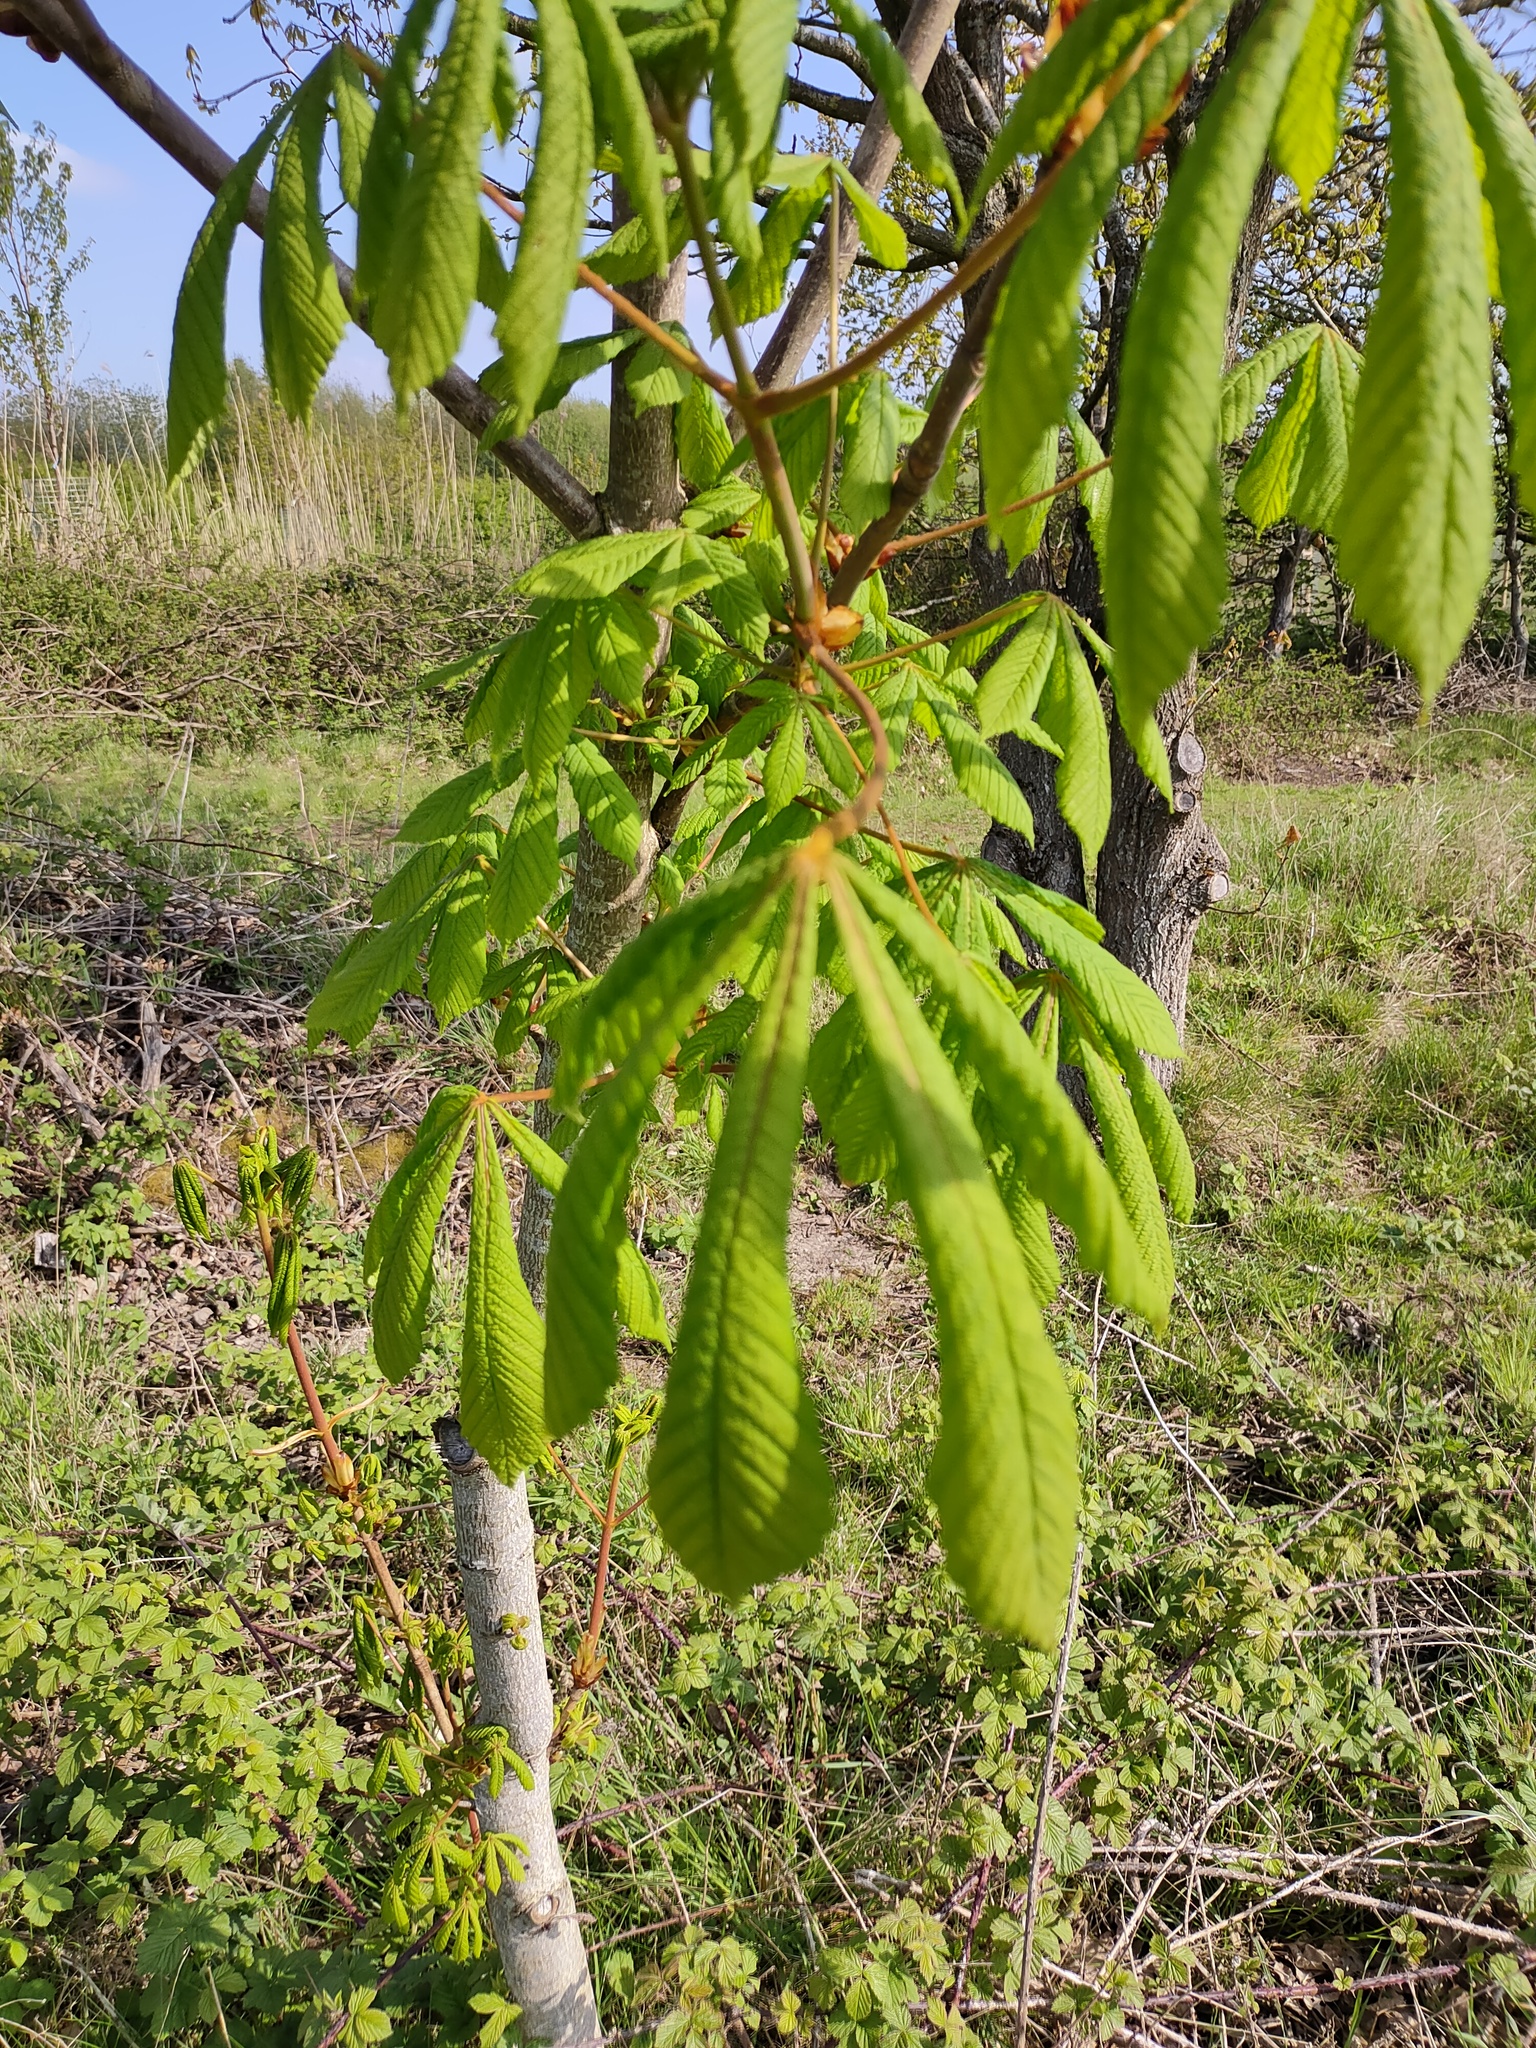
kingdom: Plantae
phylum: Tracheophyta
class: Magnoliopsida
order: Sapindales
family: Sapindaceae
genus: Aesculus
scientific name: Aesculus hippocastanum
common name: Horse-chestnut
